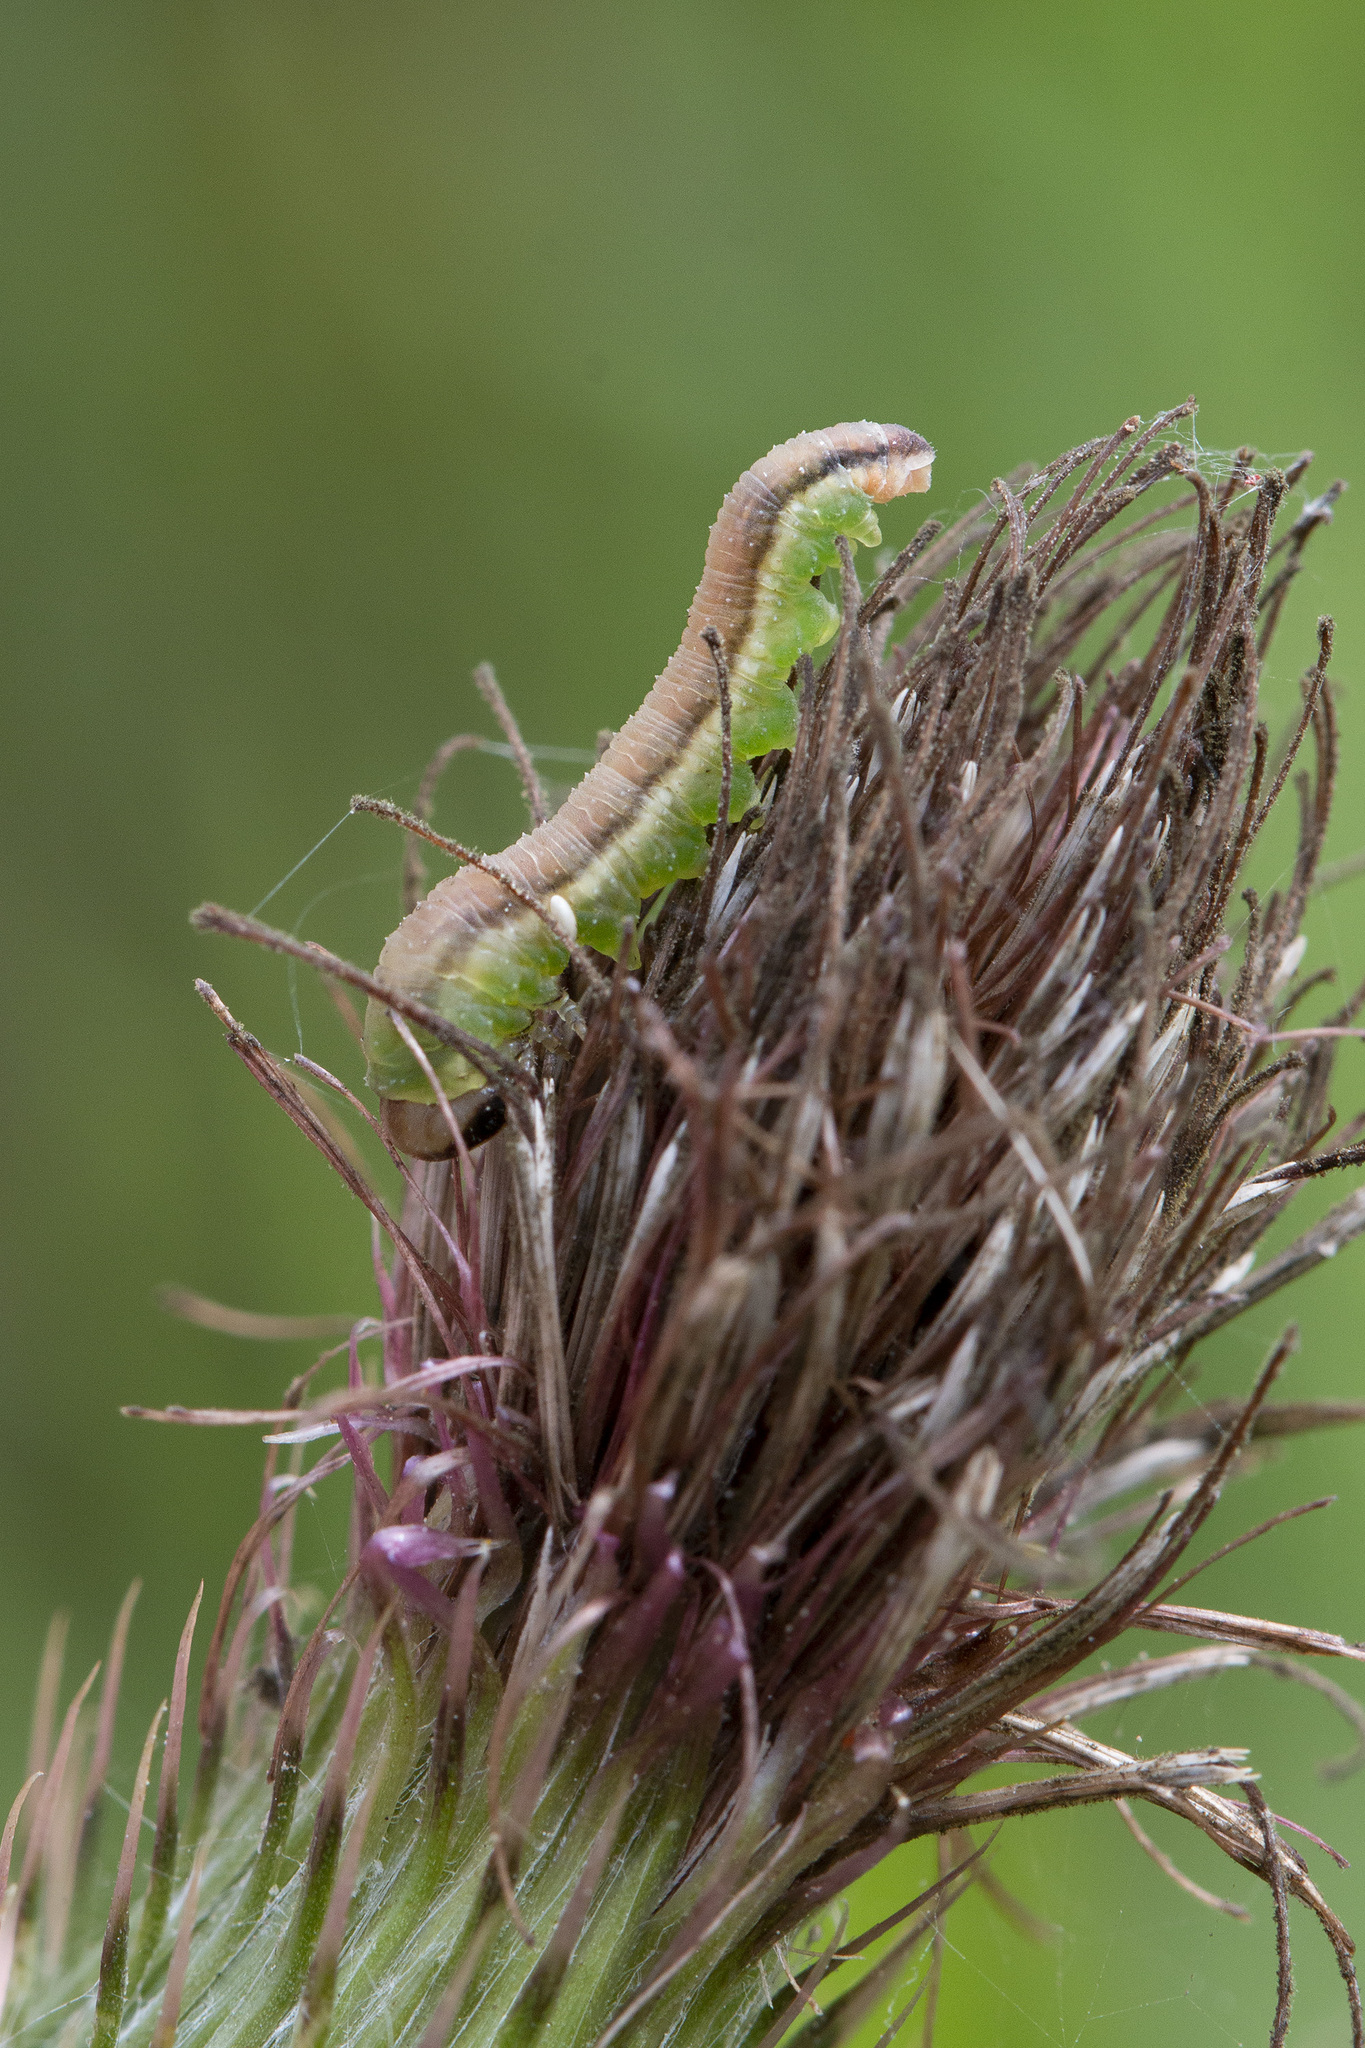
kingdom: Animalia
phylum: Arthropoda
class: Insecta
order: Hymenoptera
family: Tenthredinidae
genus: Dolerus
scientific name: Dolerus aericeps
